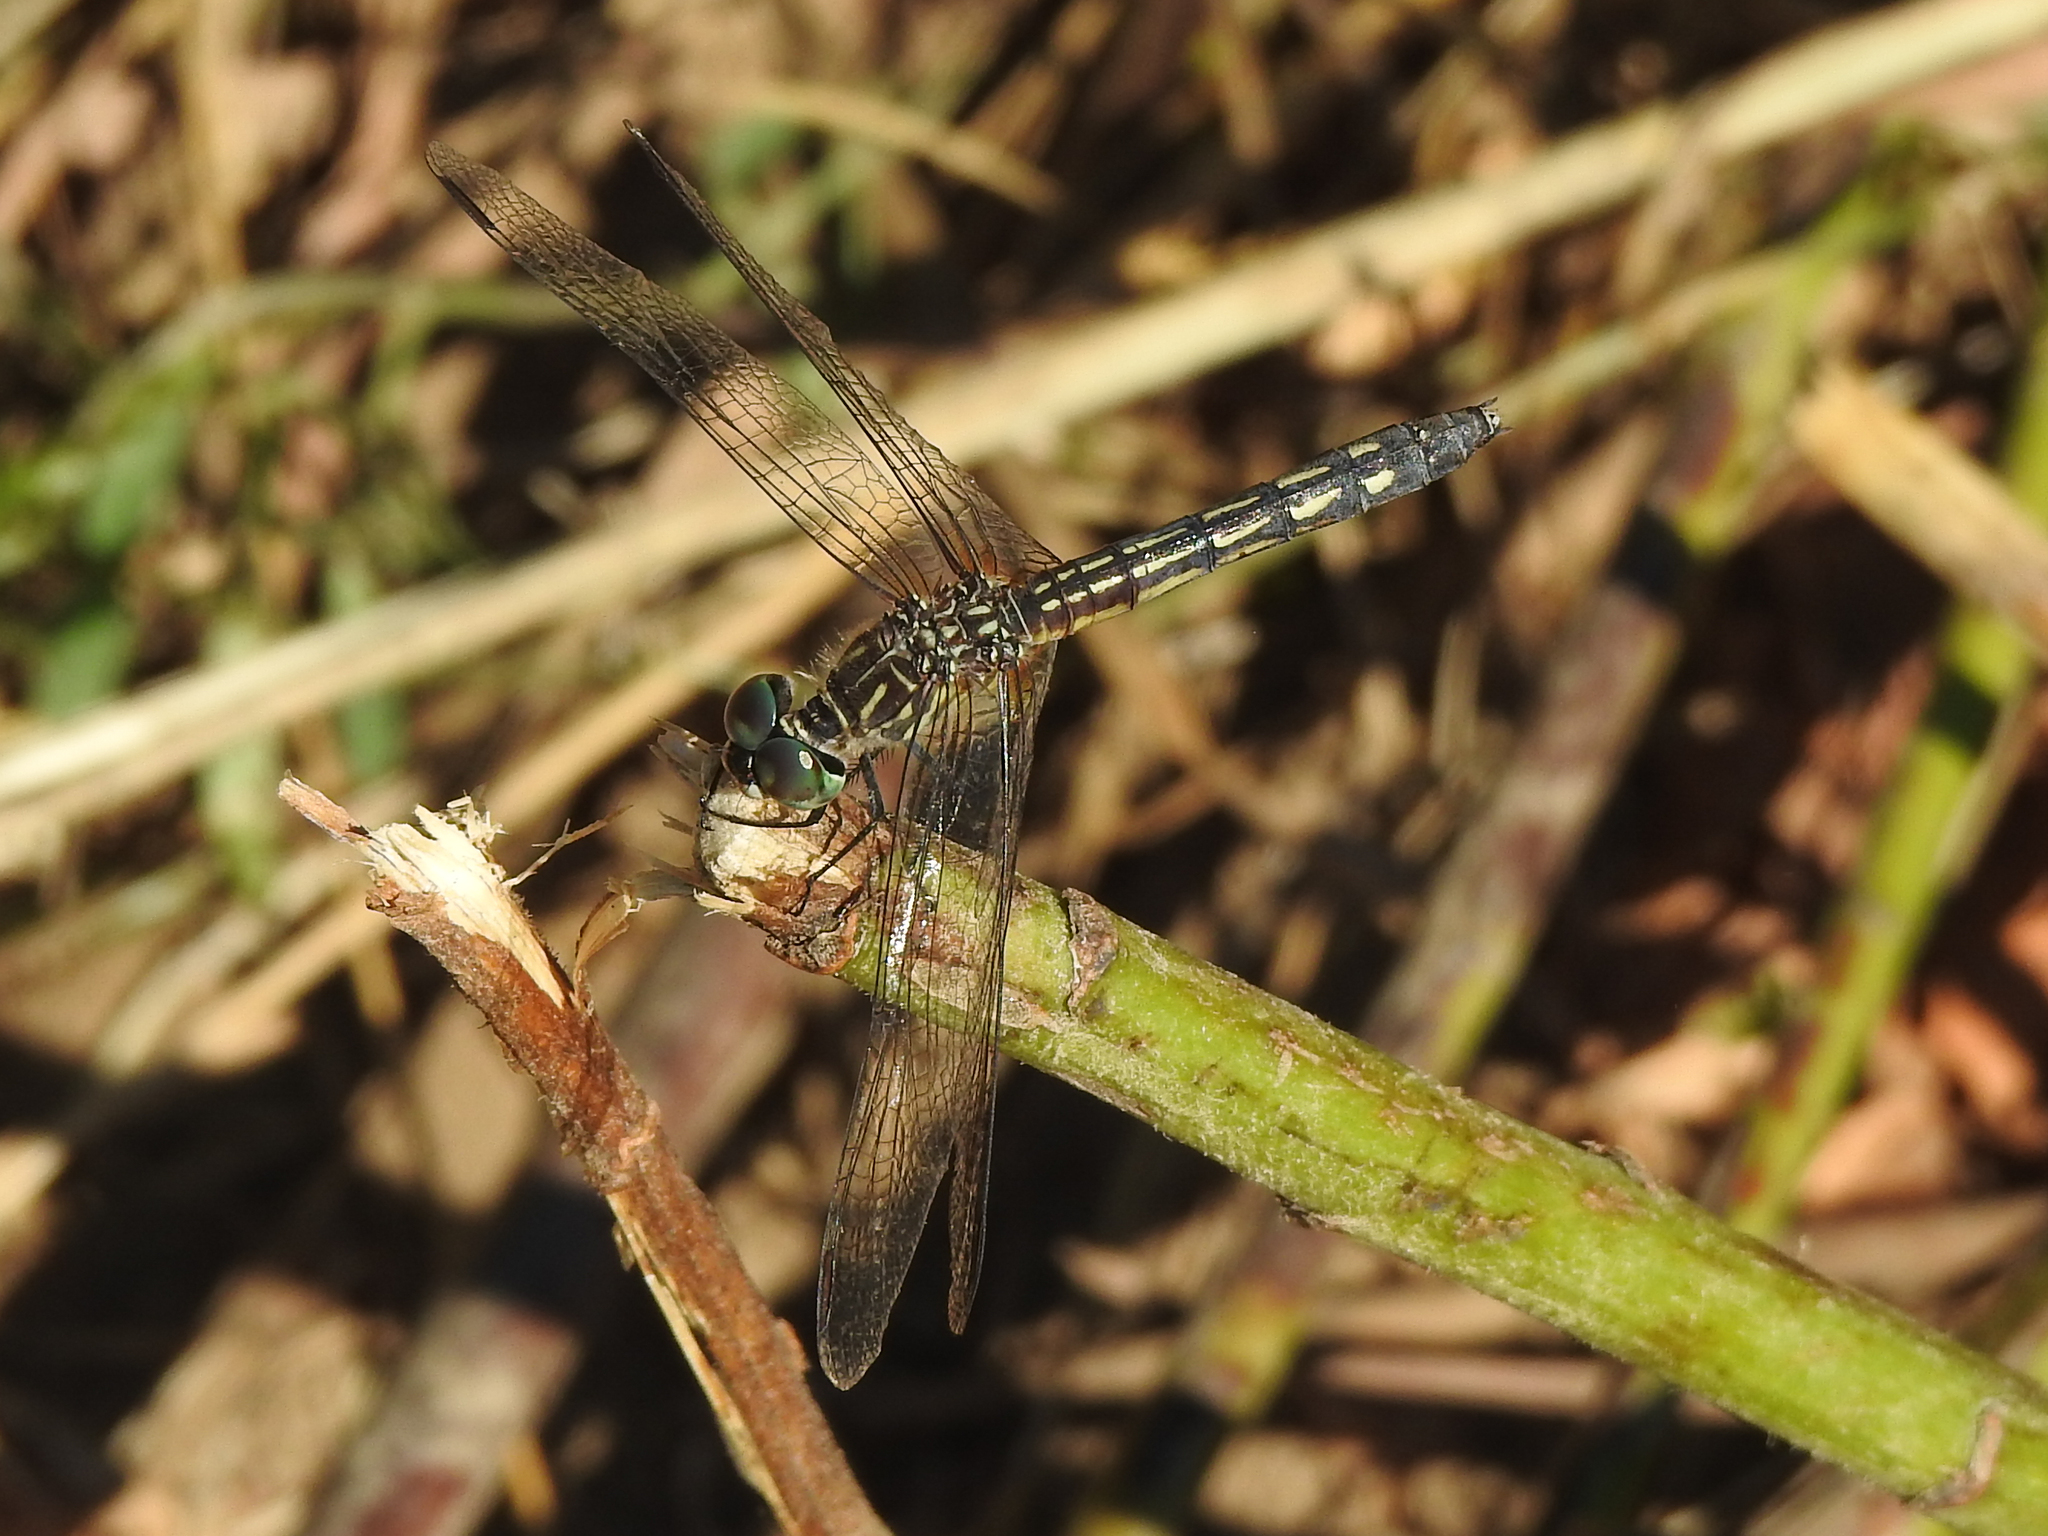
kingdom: Animalia
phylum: Arthropoda
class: Insecta
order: Odonata
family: Libellulidae
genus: Pachydiplax
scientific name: Pachydiplax longipennis
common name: Blue dasher
